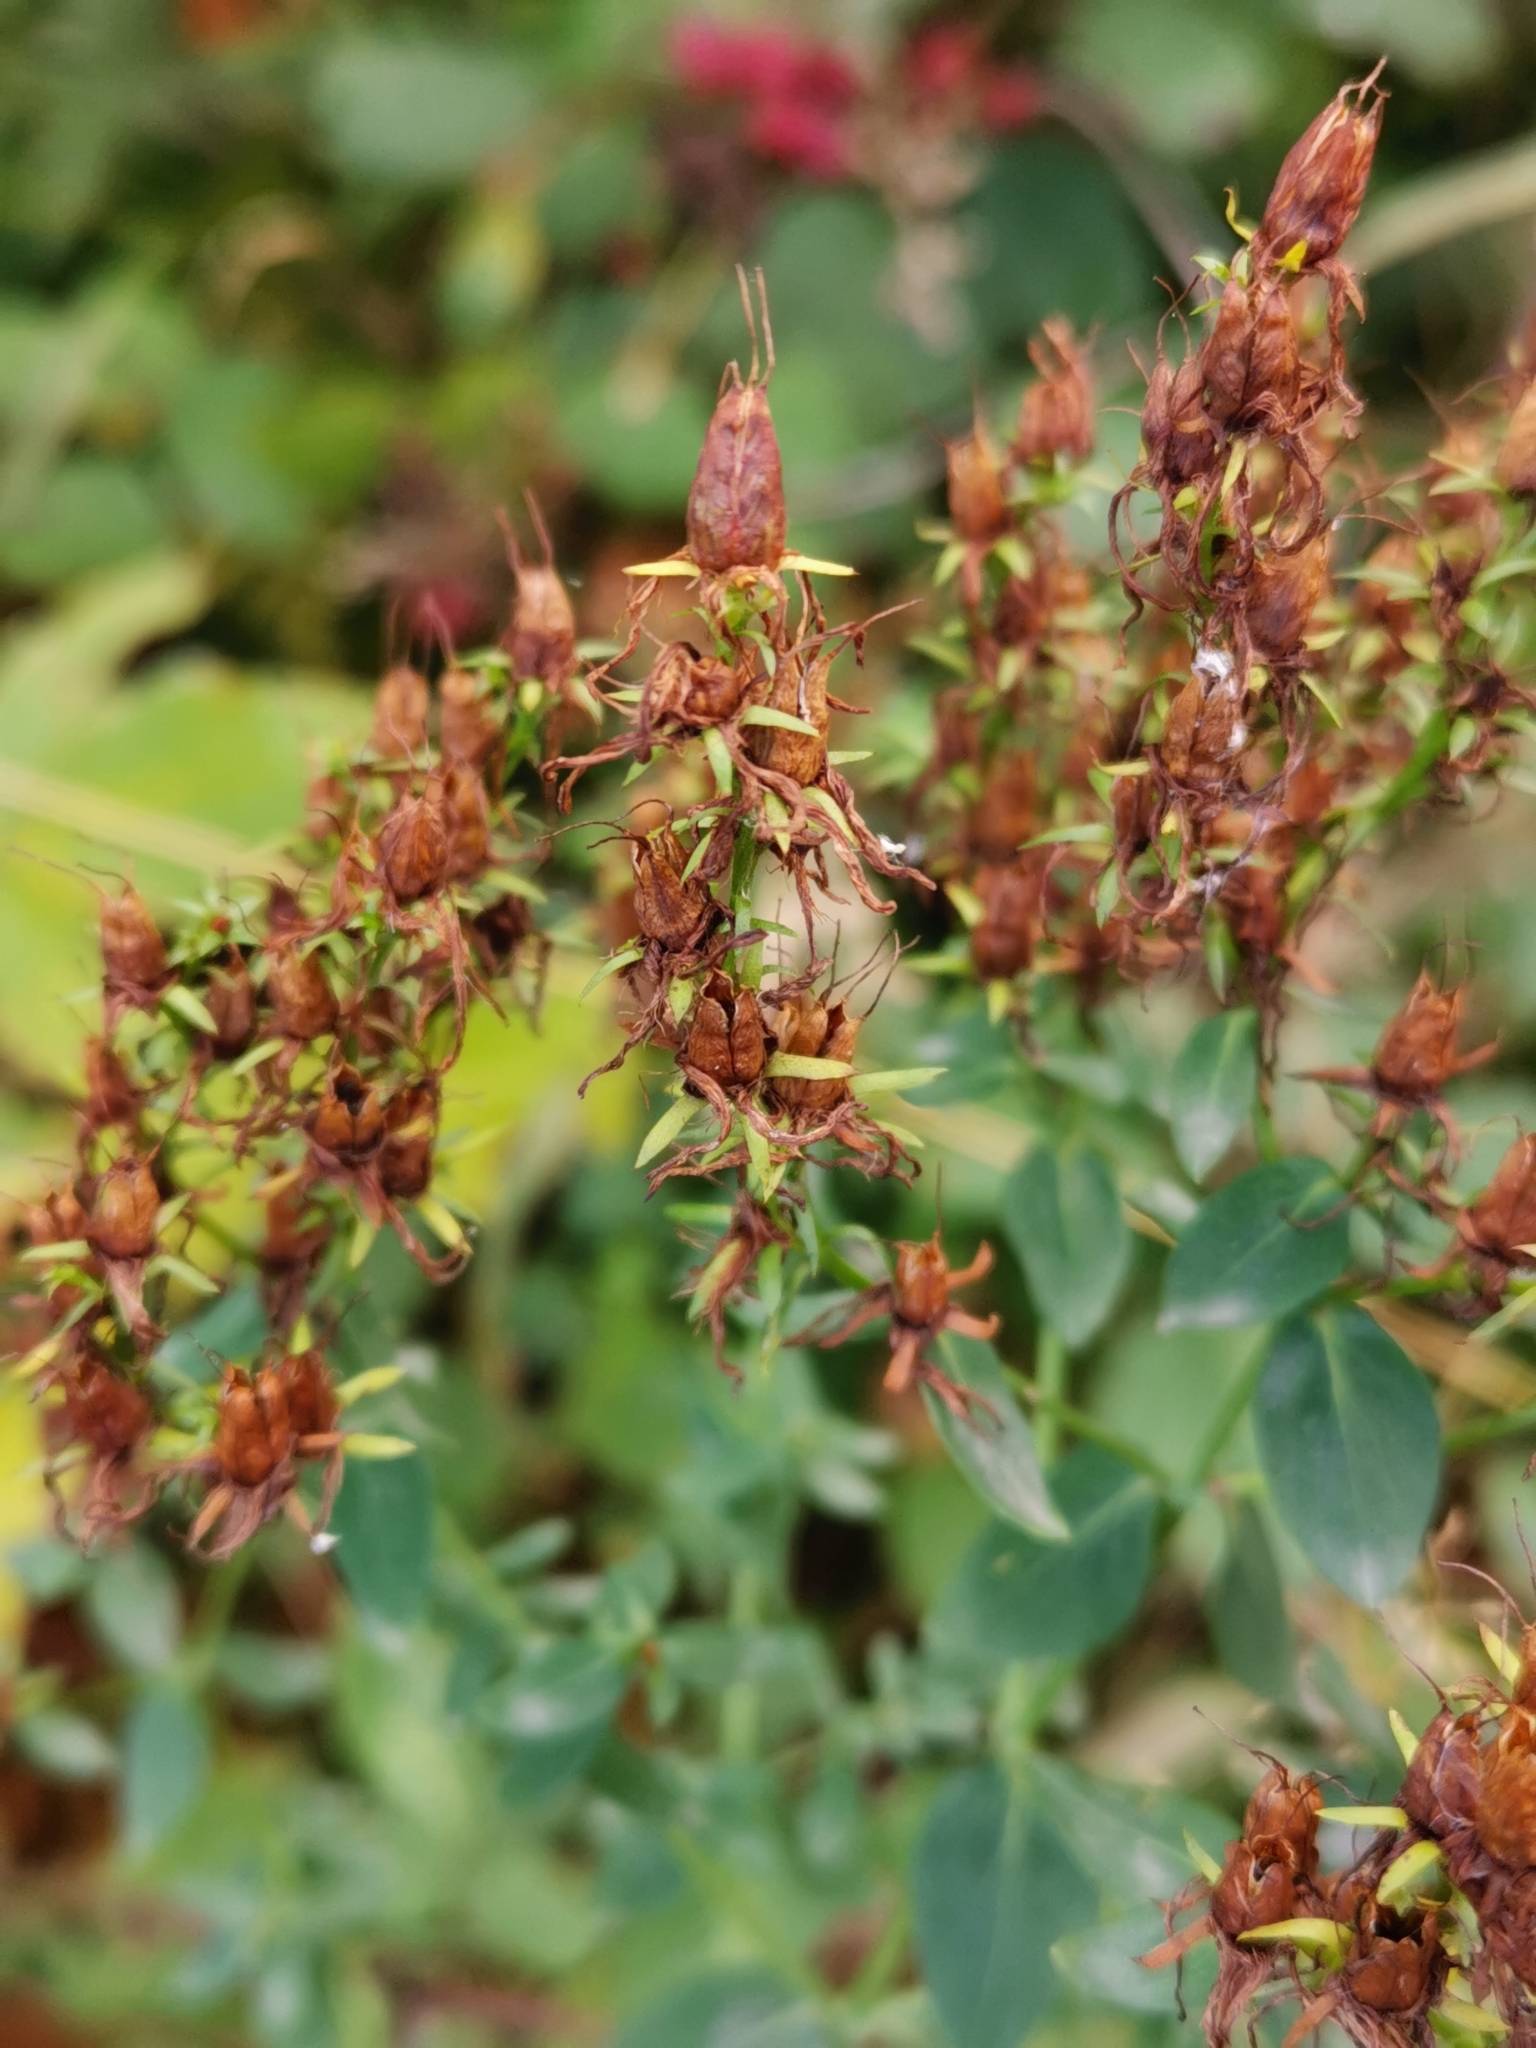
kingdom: Plantae
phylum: Tracheophyta
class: Magnoliopsida
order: Malpighiales
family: Hypericaceae
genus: Hypericum
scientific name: Hypericum perforatum
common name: Common st. johnswort
